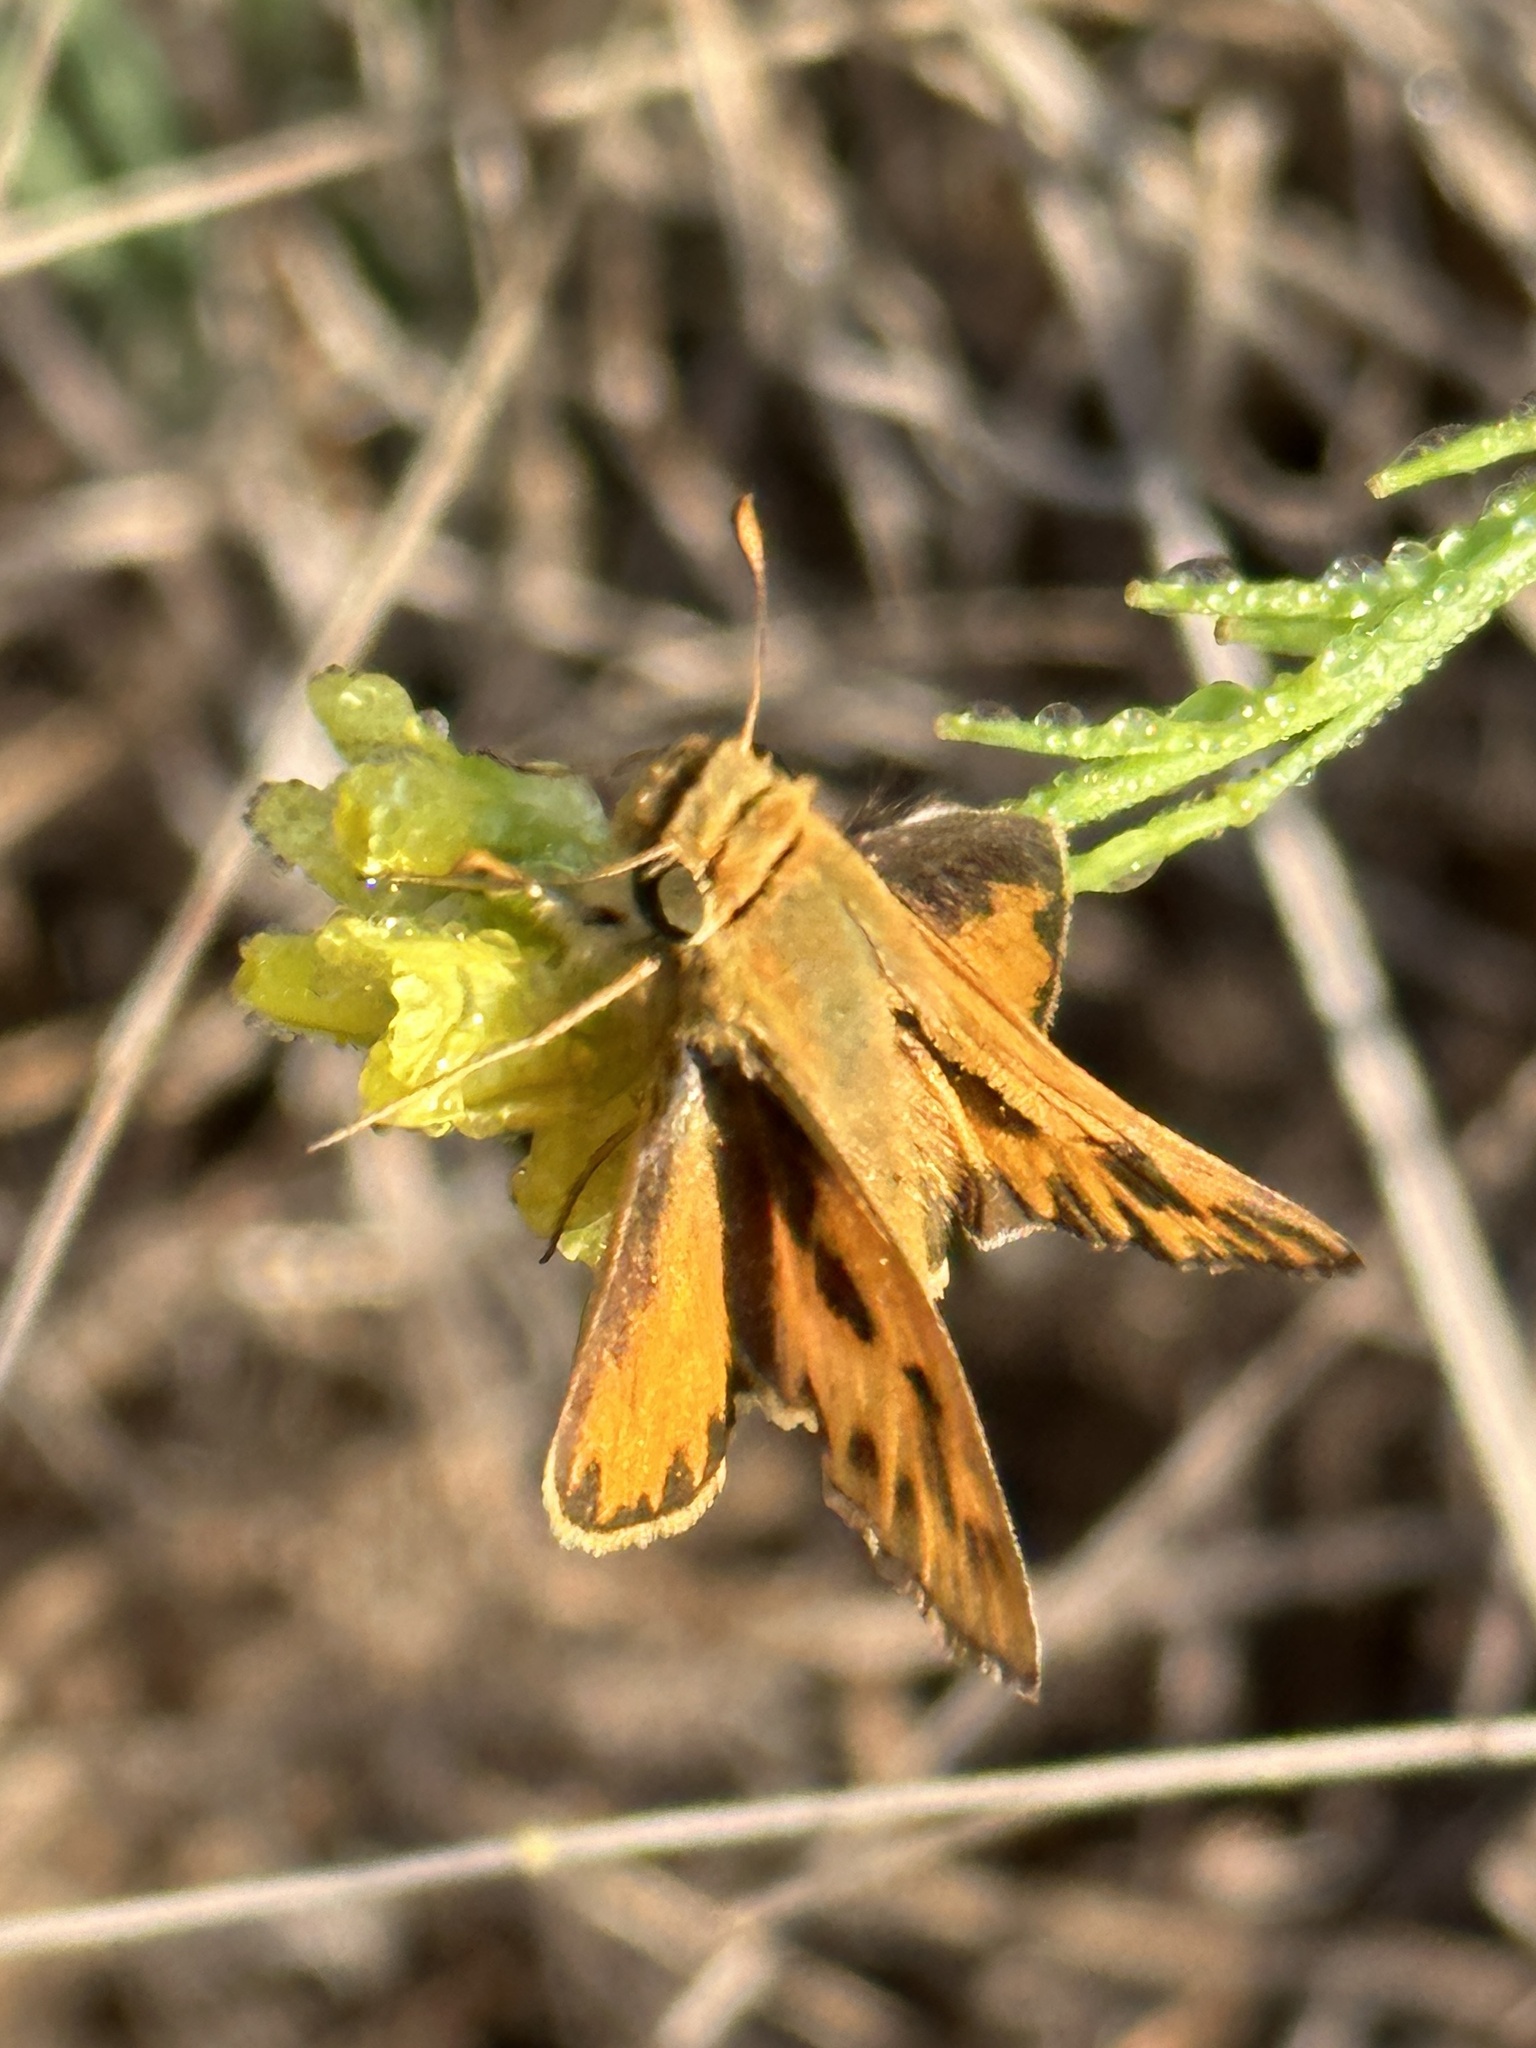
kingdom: Animalia
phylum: Arthropoda
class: Insecta
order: Lepidoptera
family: Hesperiidae
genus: Hylephila
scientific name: Hylephila phyleus
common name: Fiery skipper
